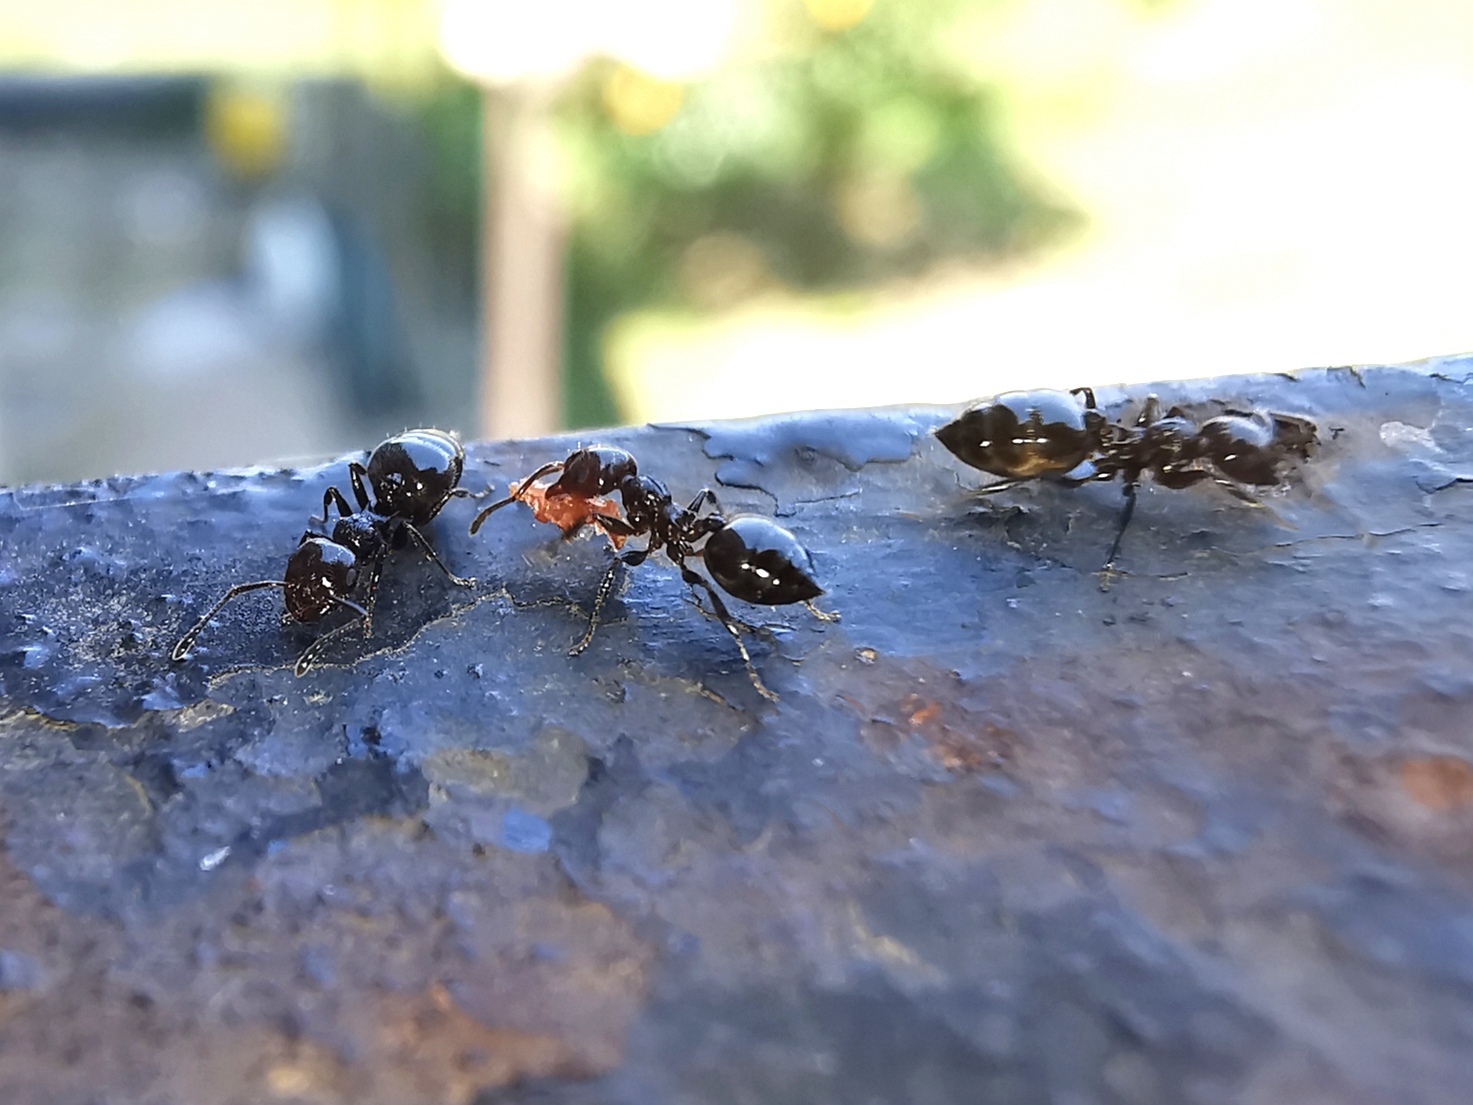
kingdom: Animalia
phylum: Arthropoda
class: Insecta
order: Hymenoptera
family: Formicidae
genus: Crematogaster
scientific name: Crematogaster ionia
